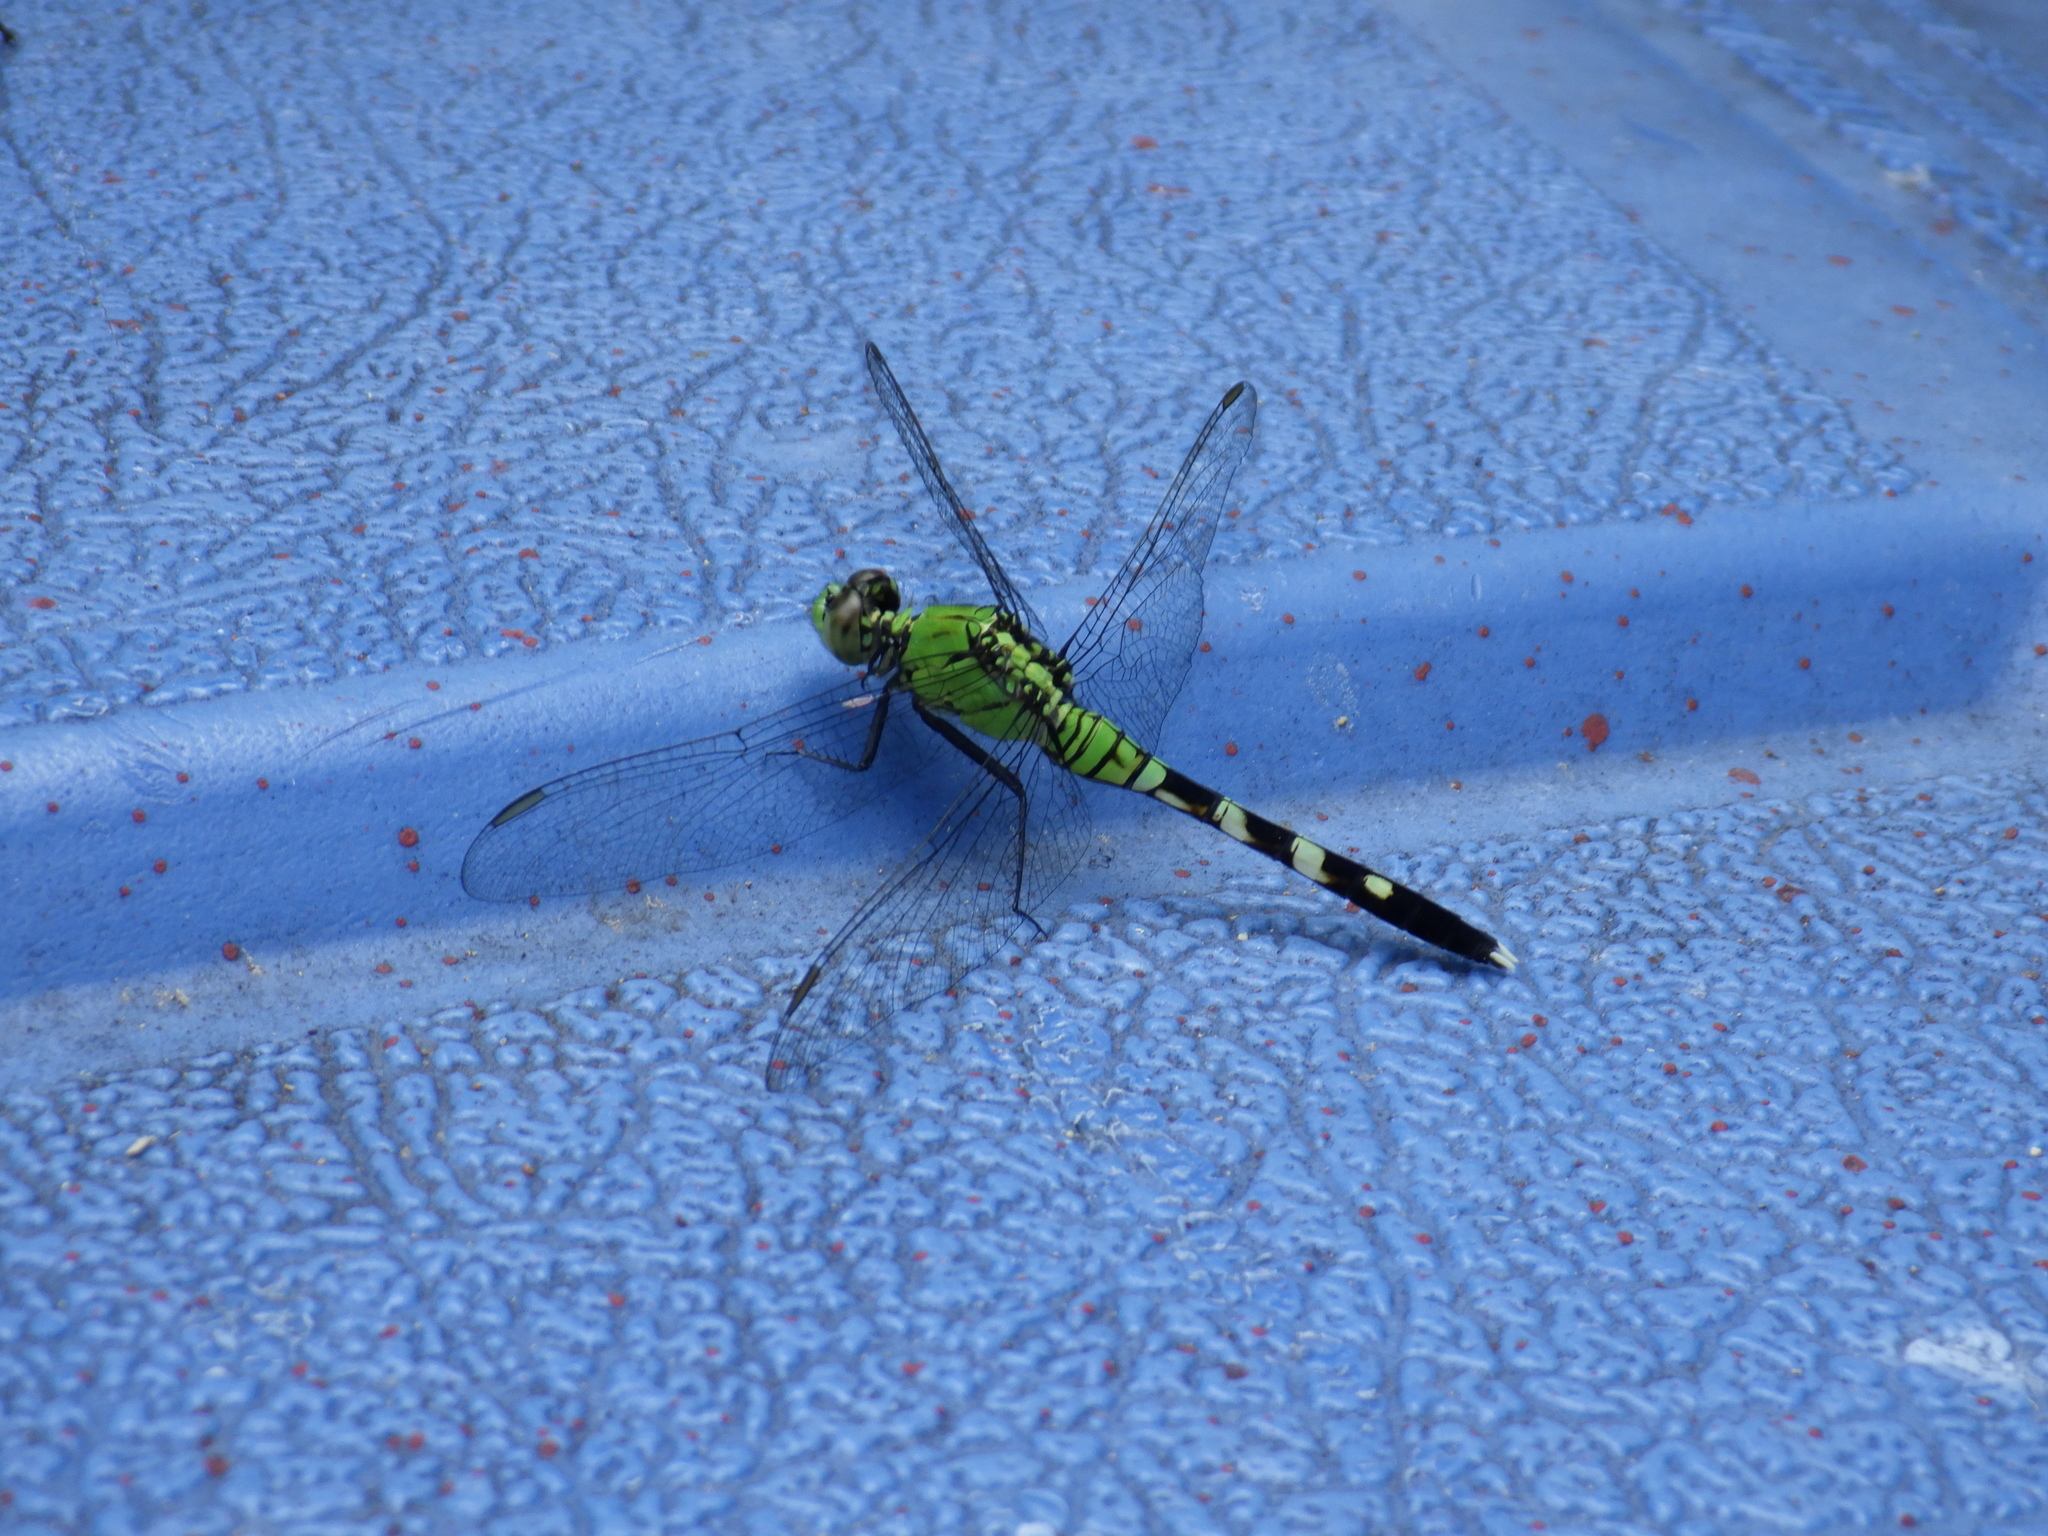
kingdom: Animalia
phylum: Arthropoda
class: Insecta
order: Odonata
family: Libellulidae
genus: Erythemis
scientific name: Erythemis simplicicollis
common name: Eastern pondhawk
